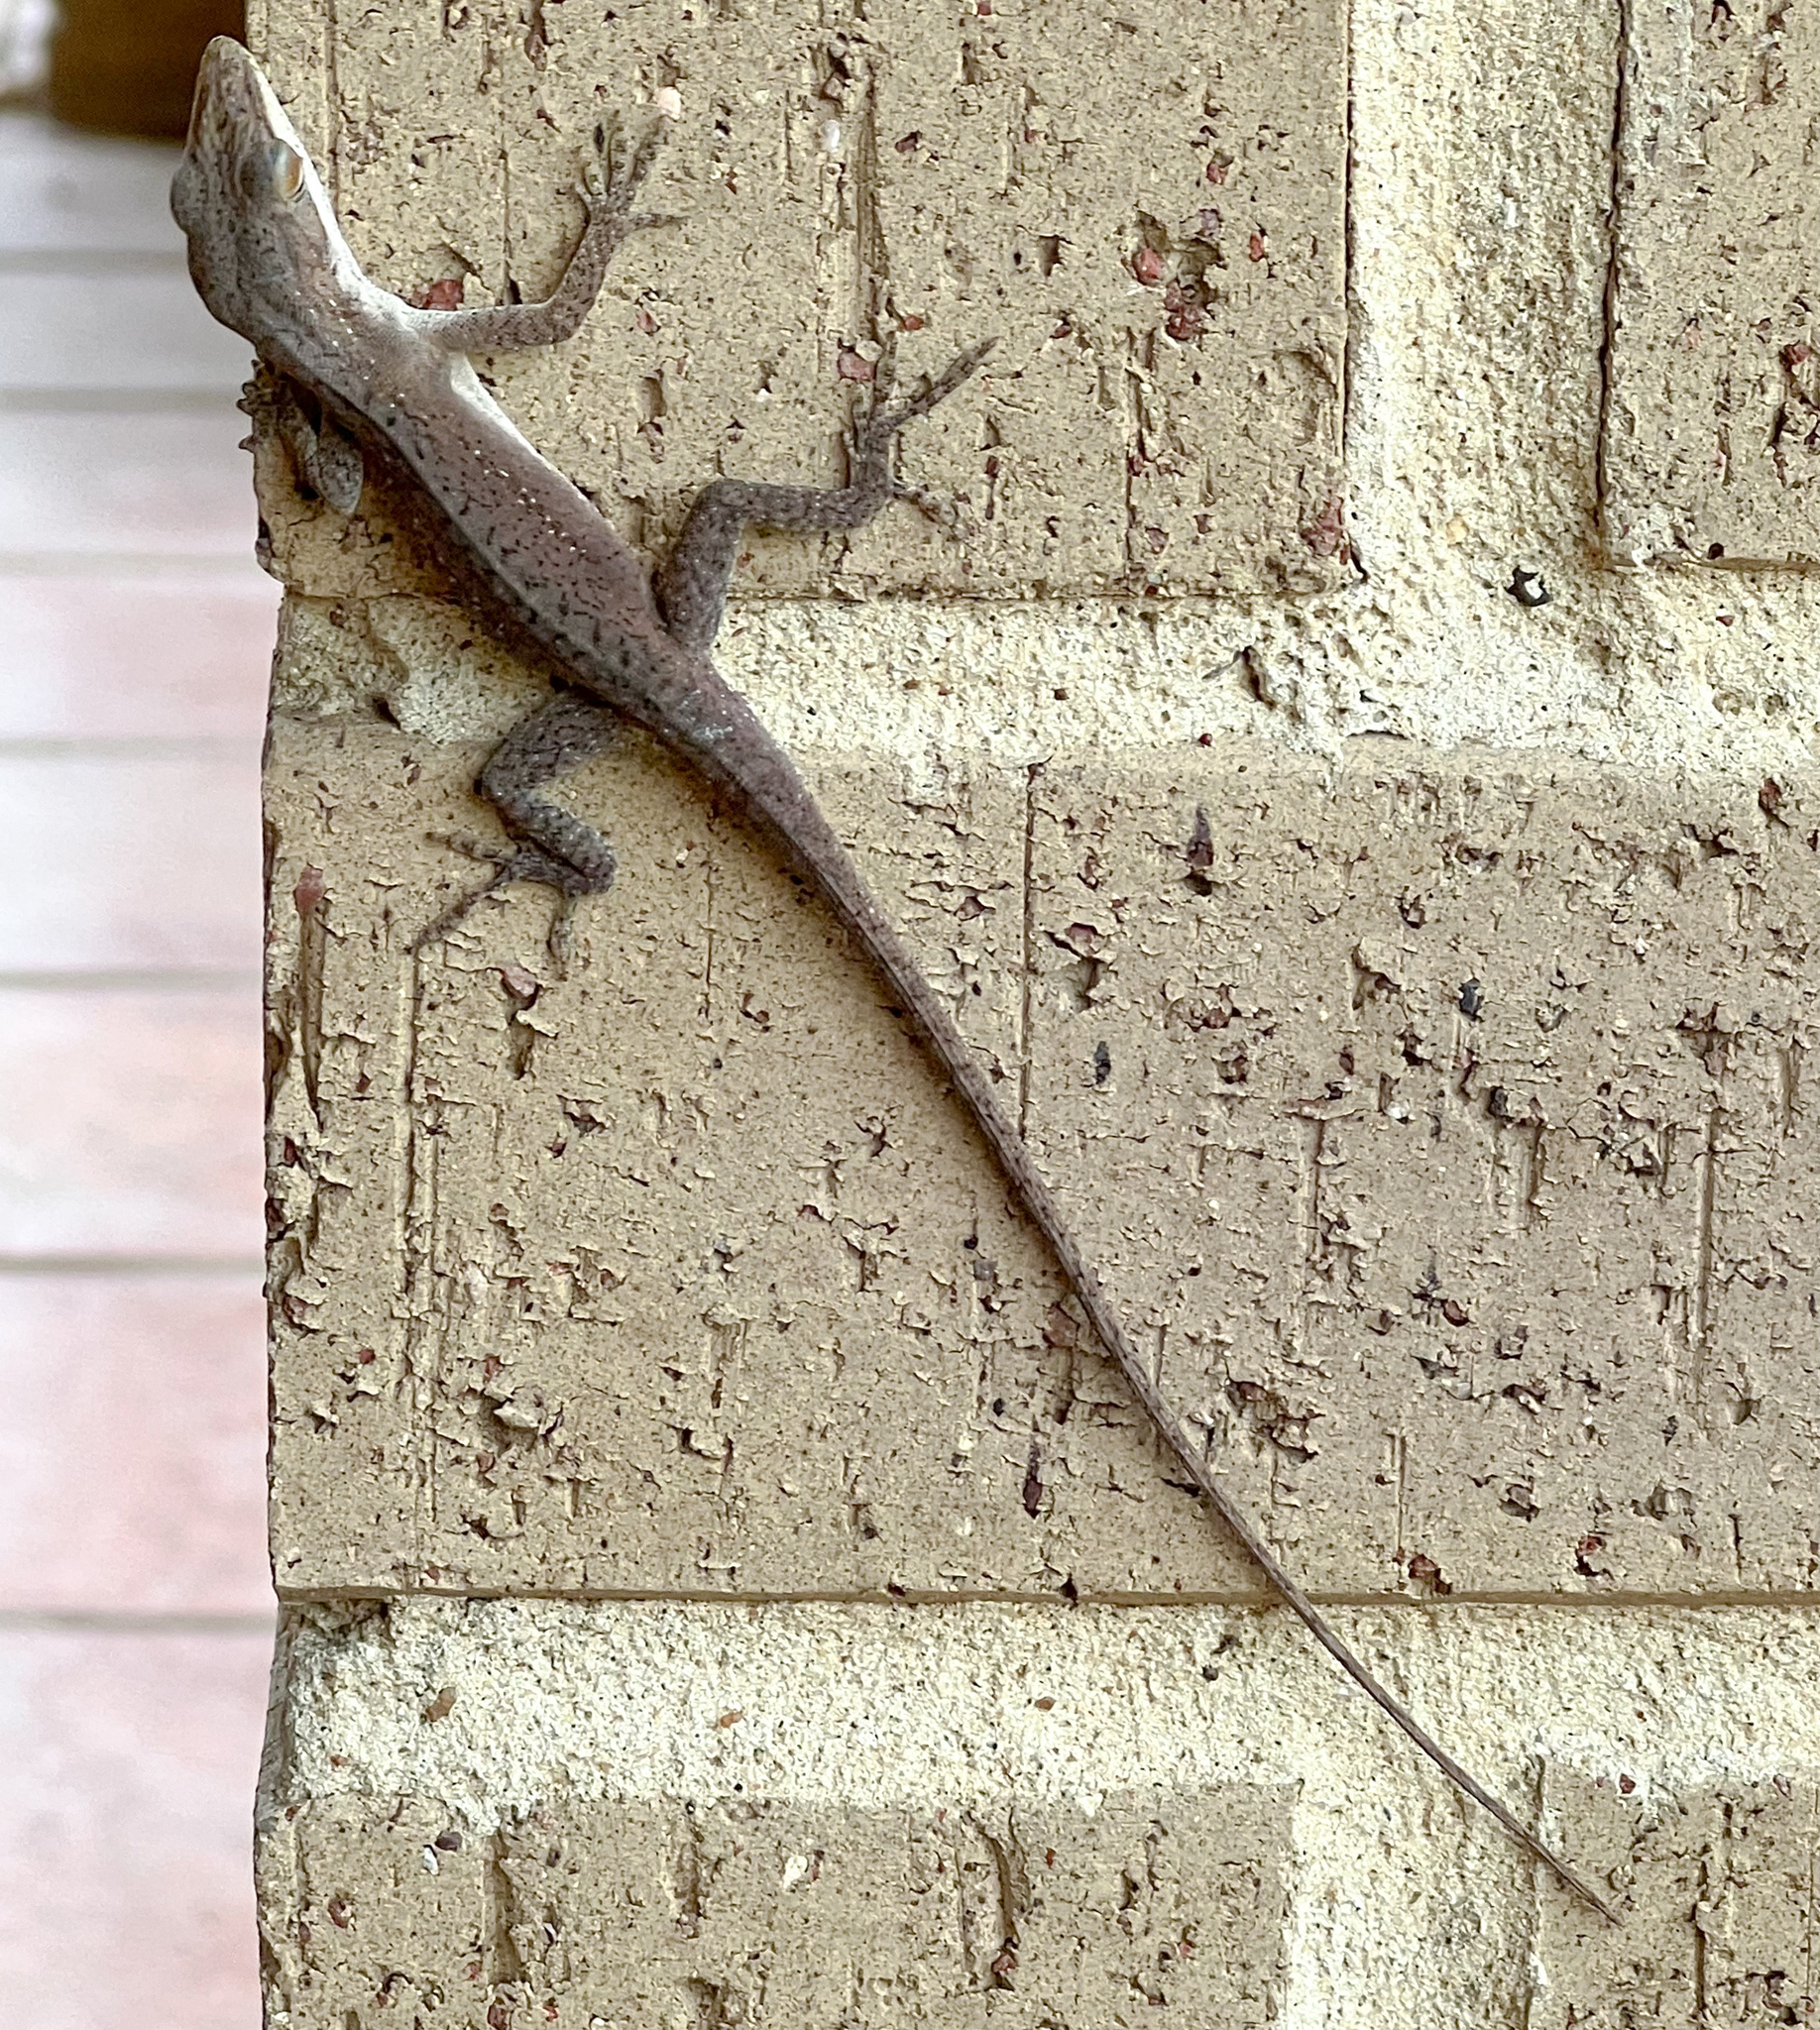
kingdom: Animalia
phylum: Chordata
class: Squamata
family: Dactyloidae
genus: Anolis
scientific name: Anolis carolinensis
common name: Green anole
